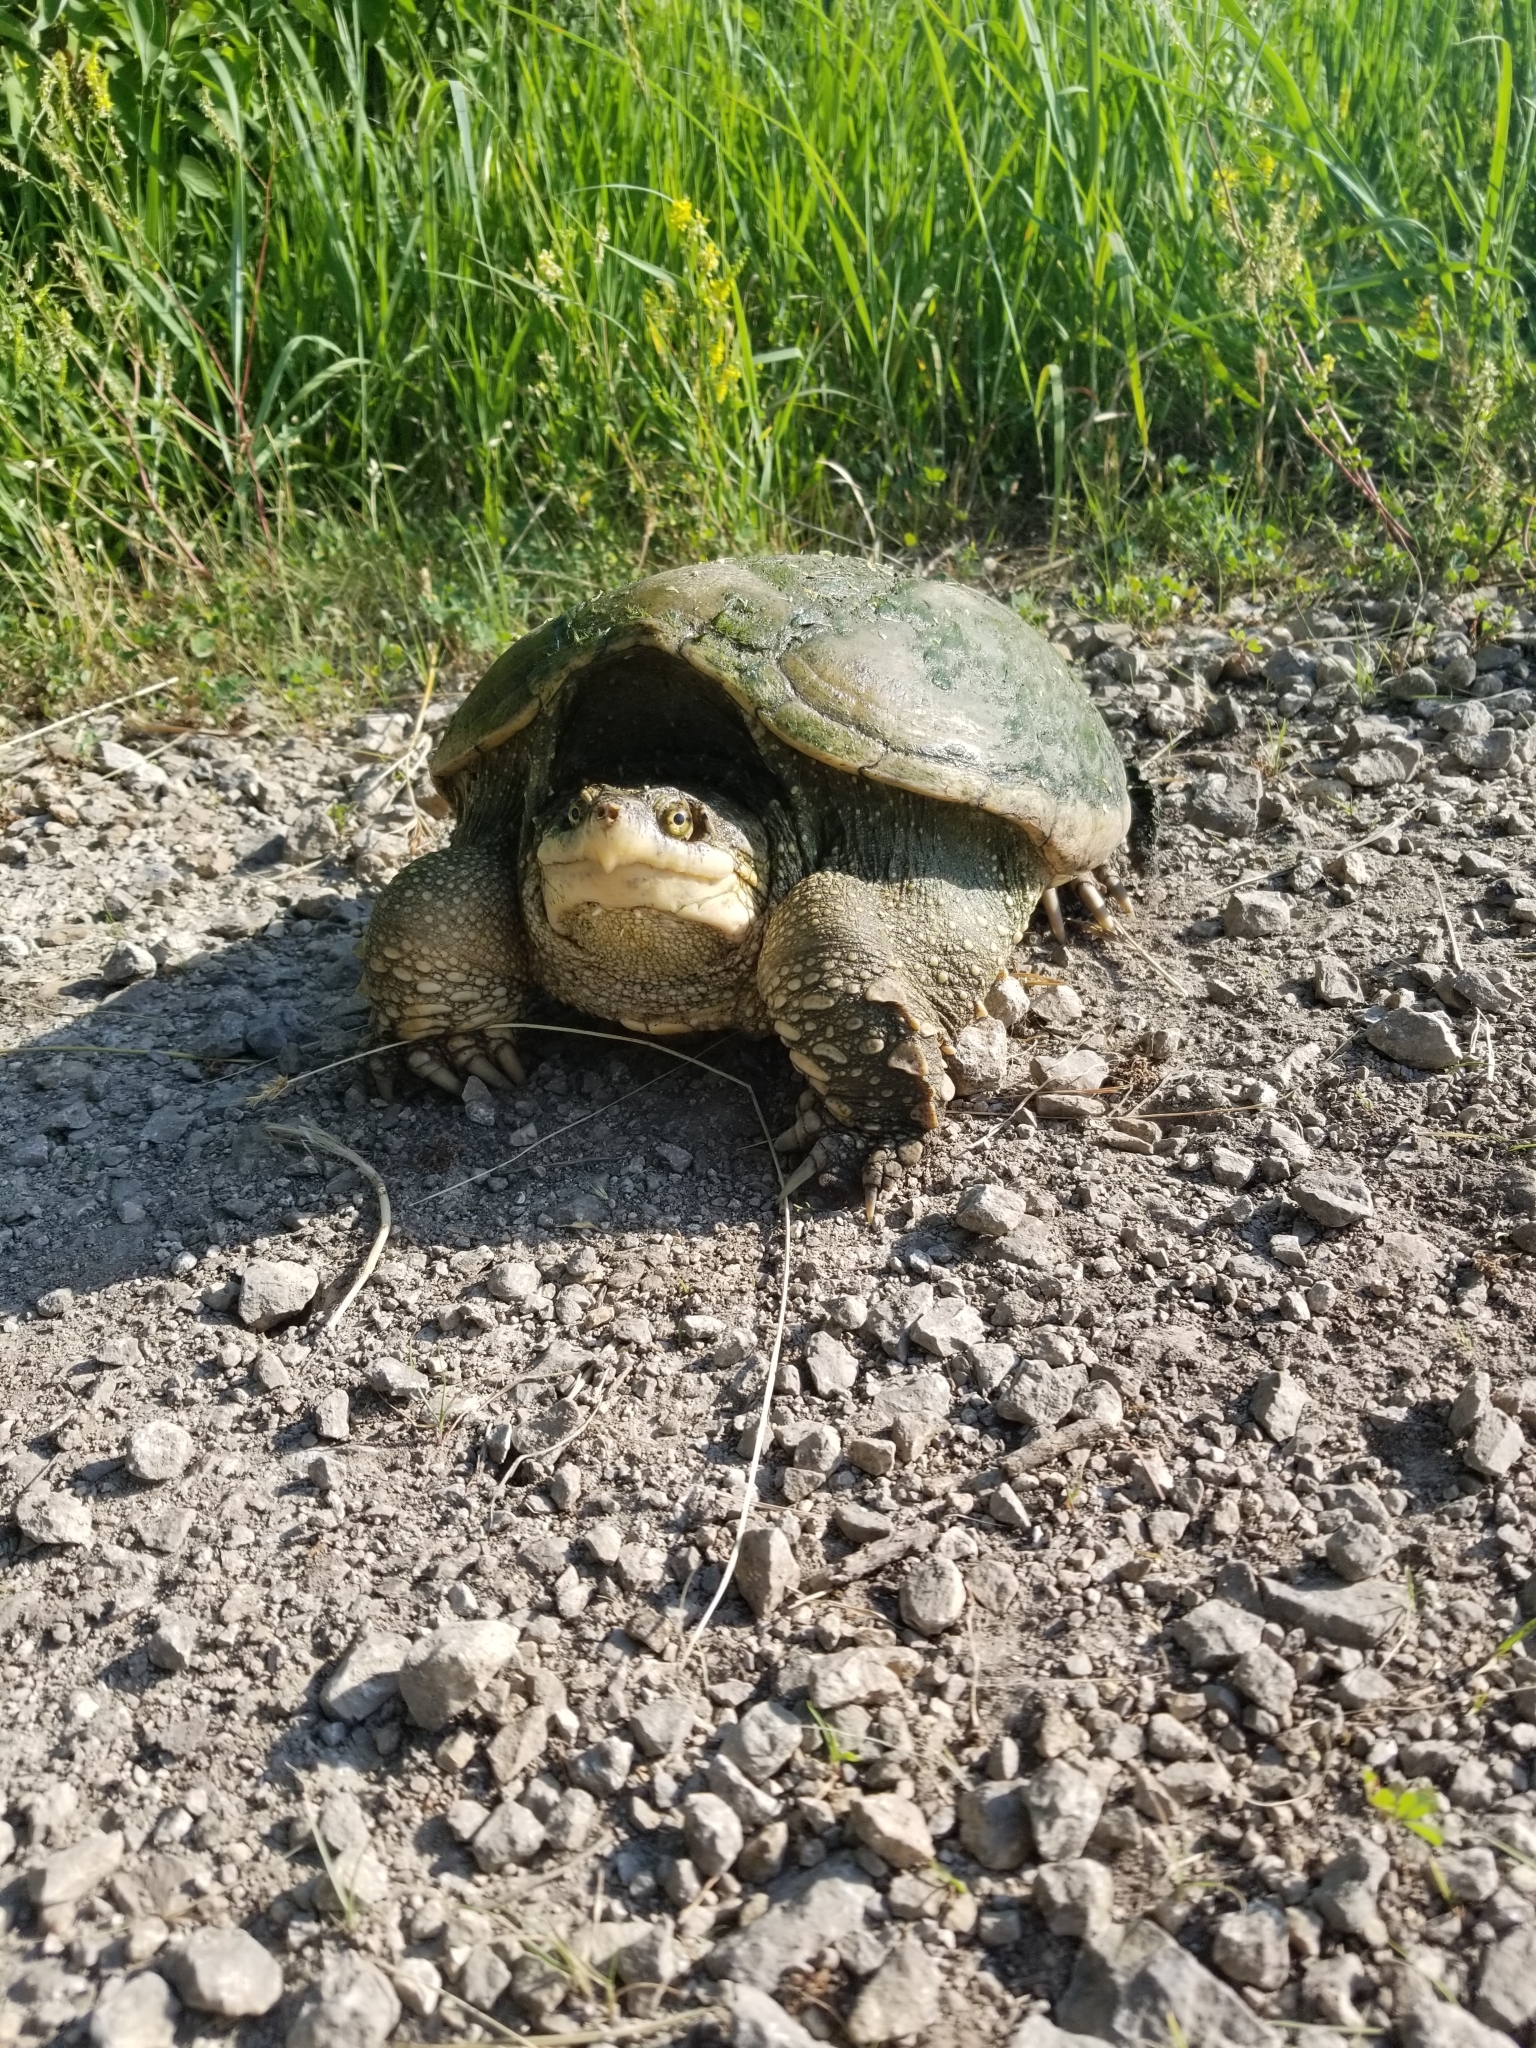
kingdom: Animalia
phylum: Chordata
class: Testudines
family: Chelydridae
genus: Chelydra
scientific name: Chelydra serpentina
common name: Common snapping turtle
